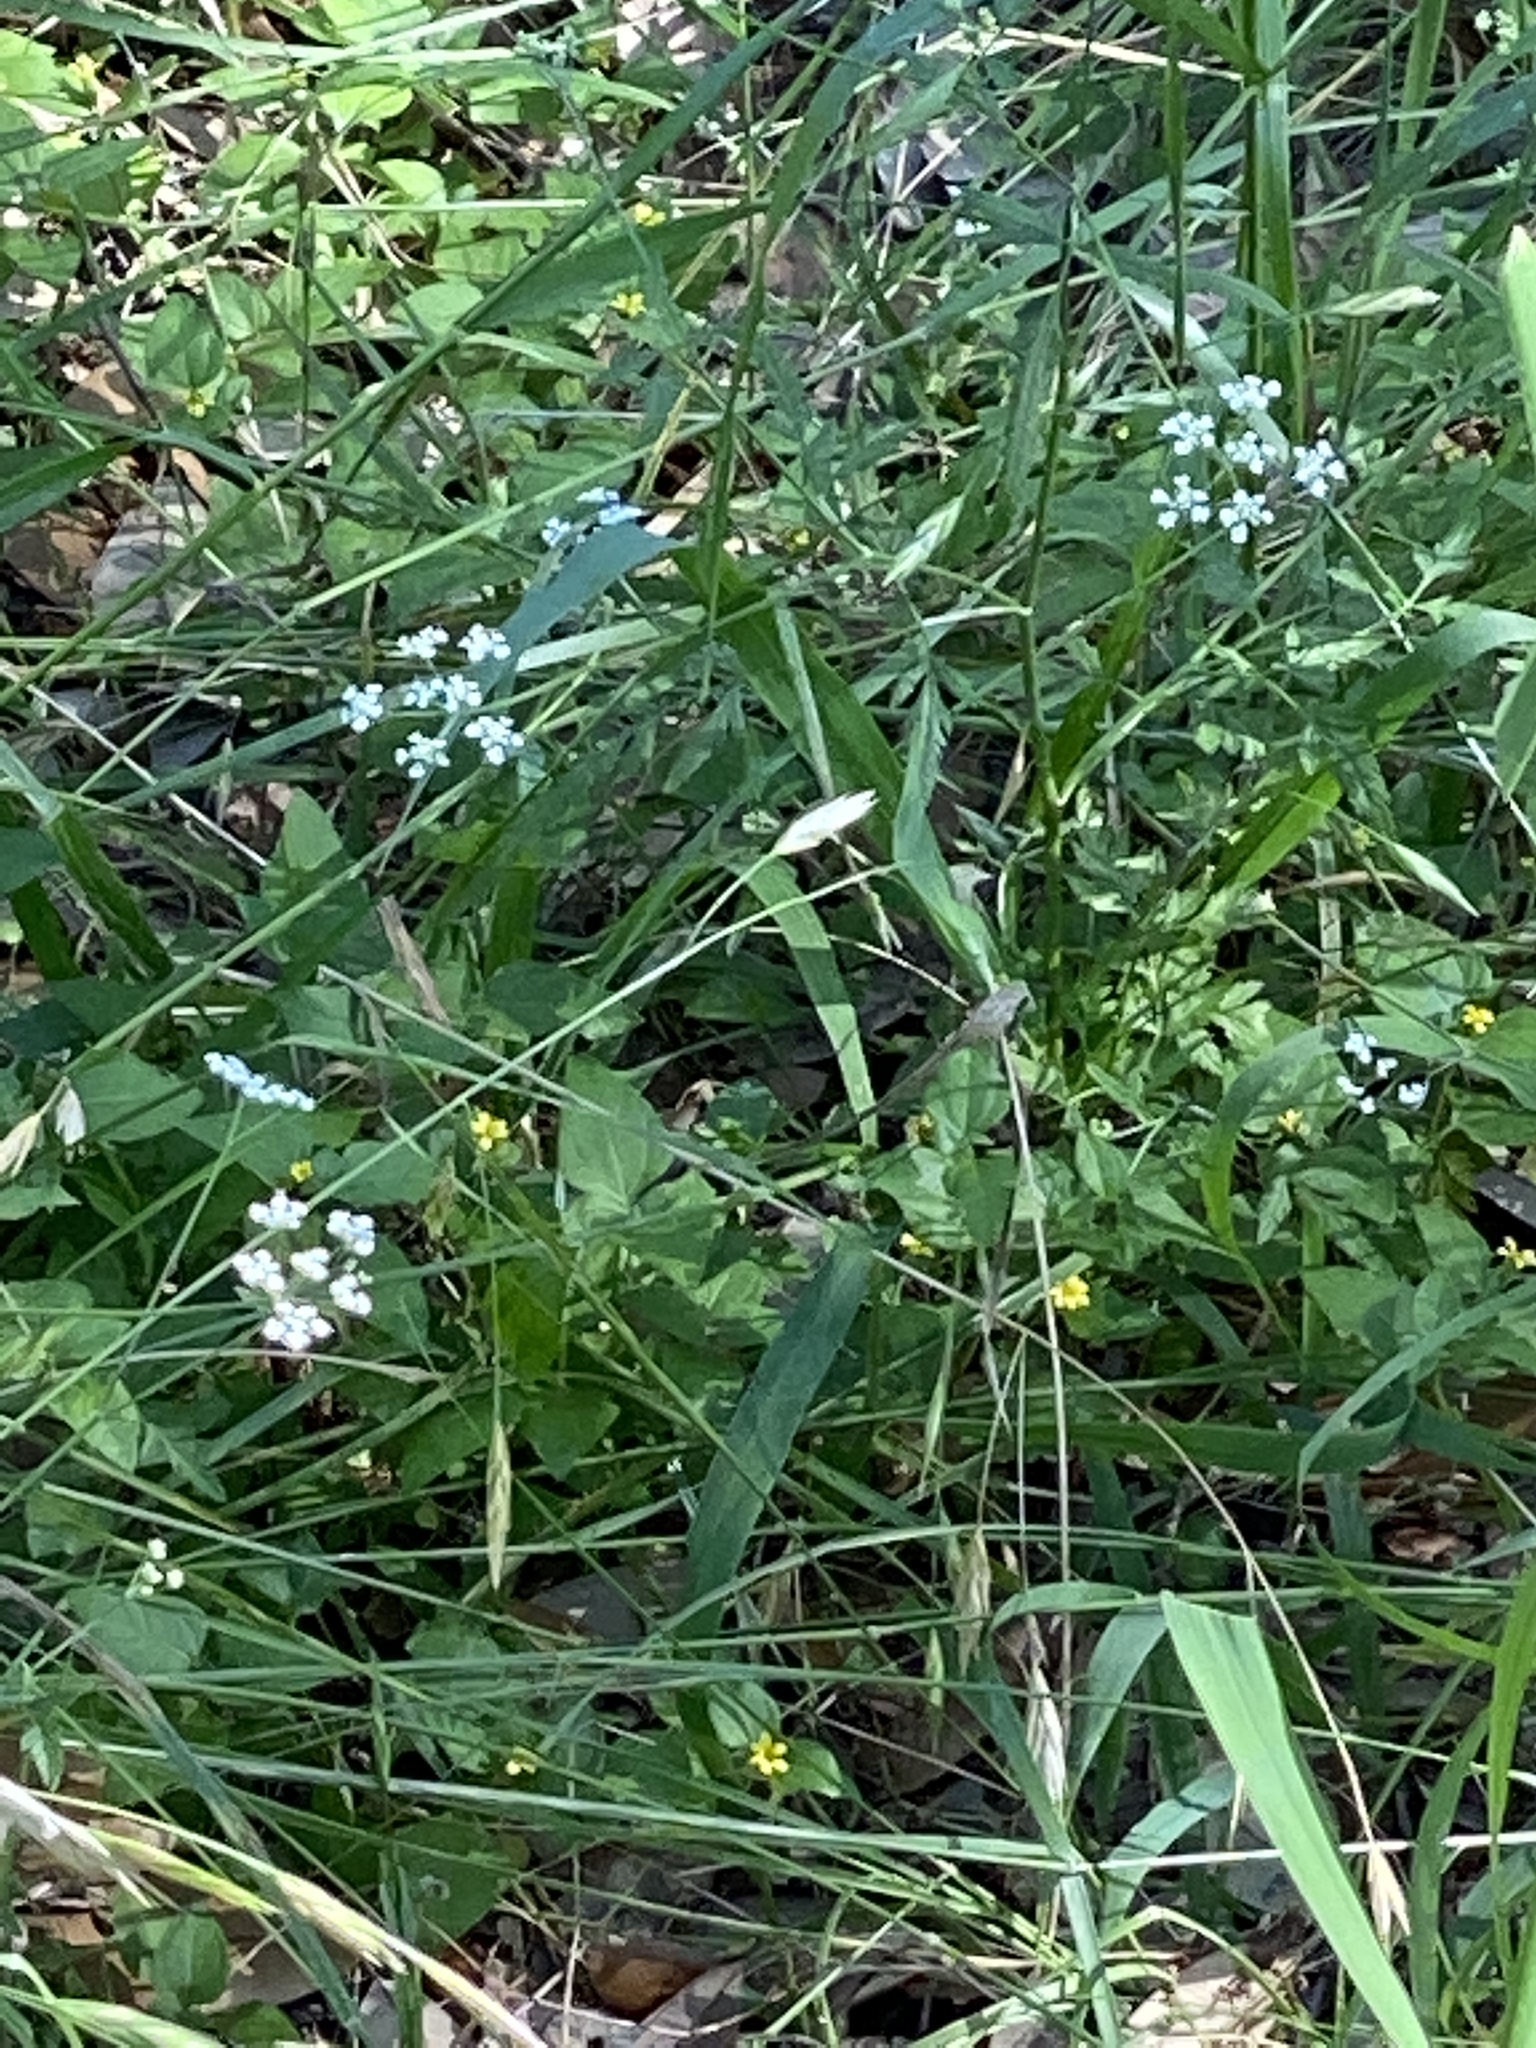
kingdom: Plantae
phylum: Tracheophyta
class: Magnoliopsida
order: Apiales
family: Apiaceae
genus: Torilis
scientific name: Torilis arvensis
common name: Spreading hedge-parsley
